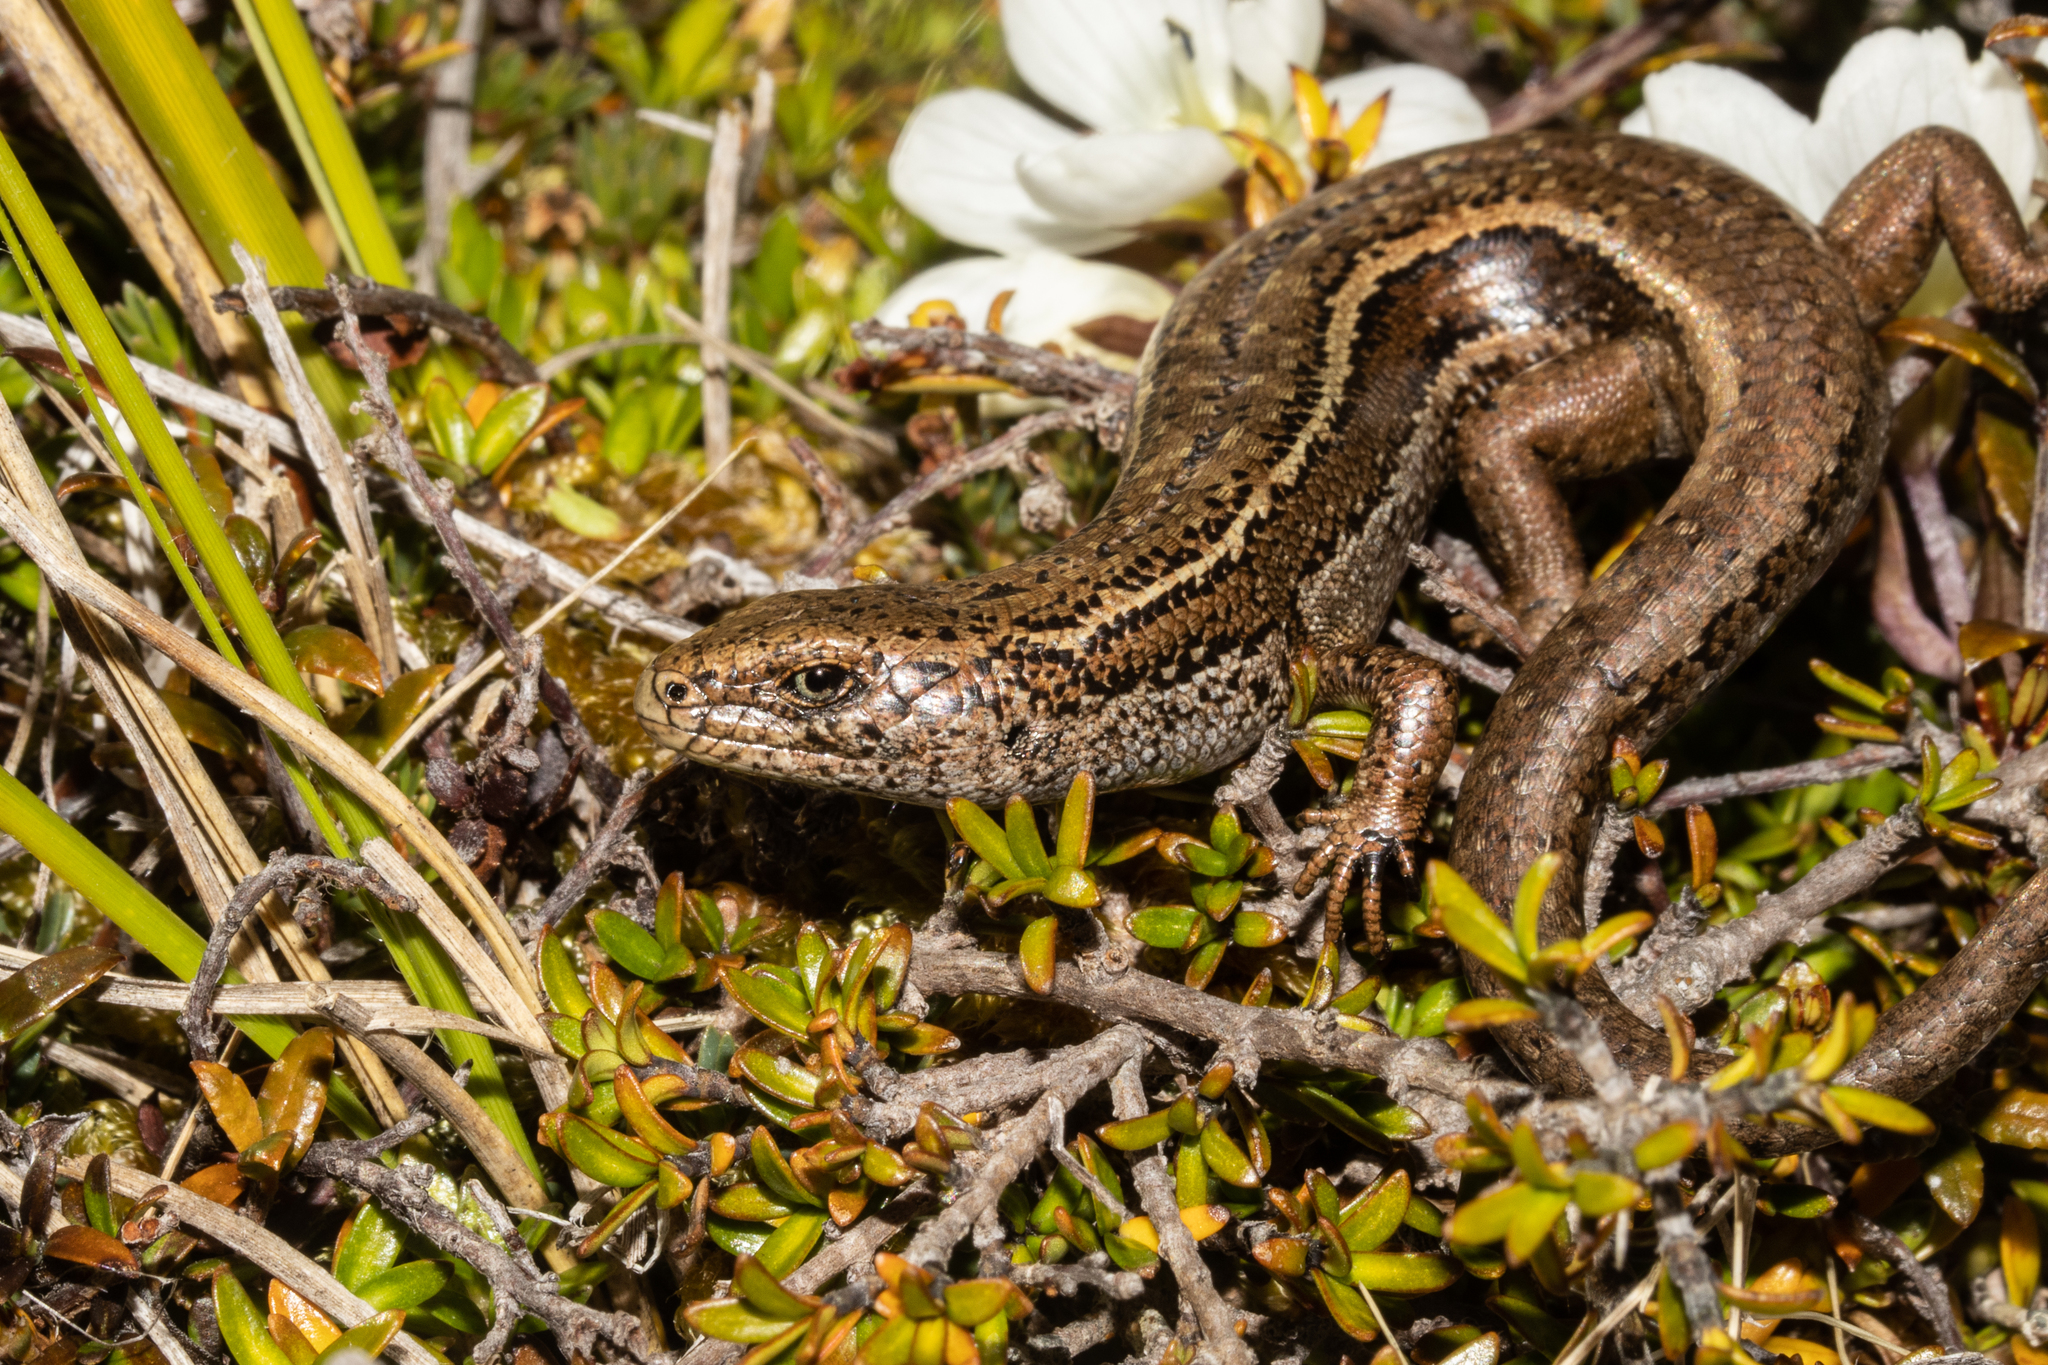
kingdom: Animalia
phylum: Chordata
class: Squamata
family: Scincidae
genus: Oligosoma
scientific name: Oligosoma burganae
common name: Burgan skink
